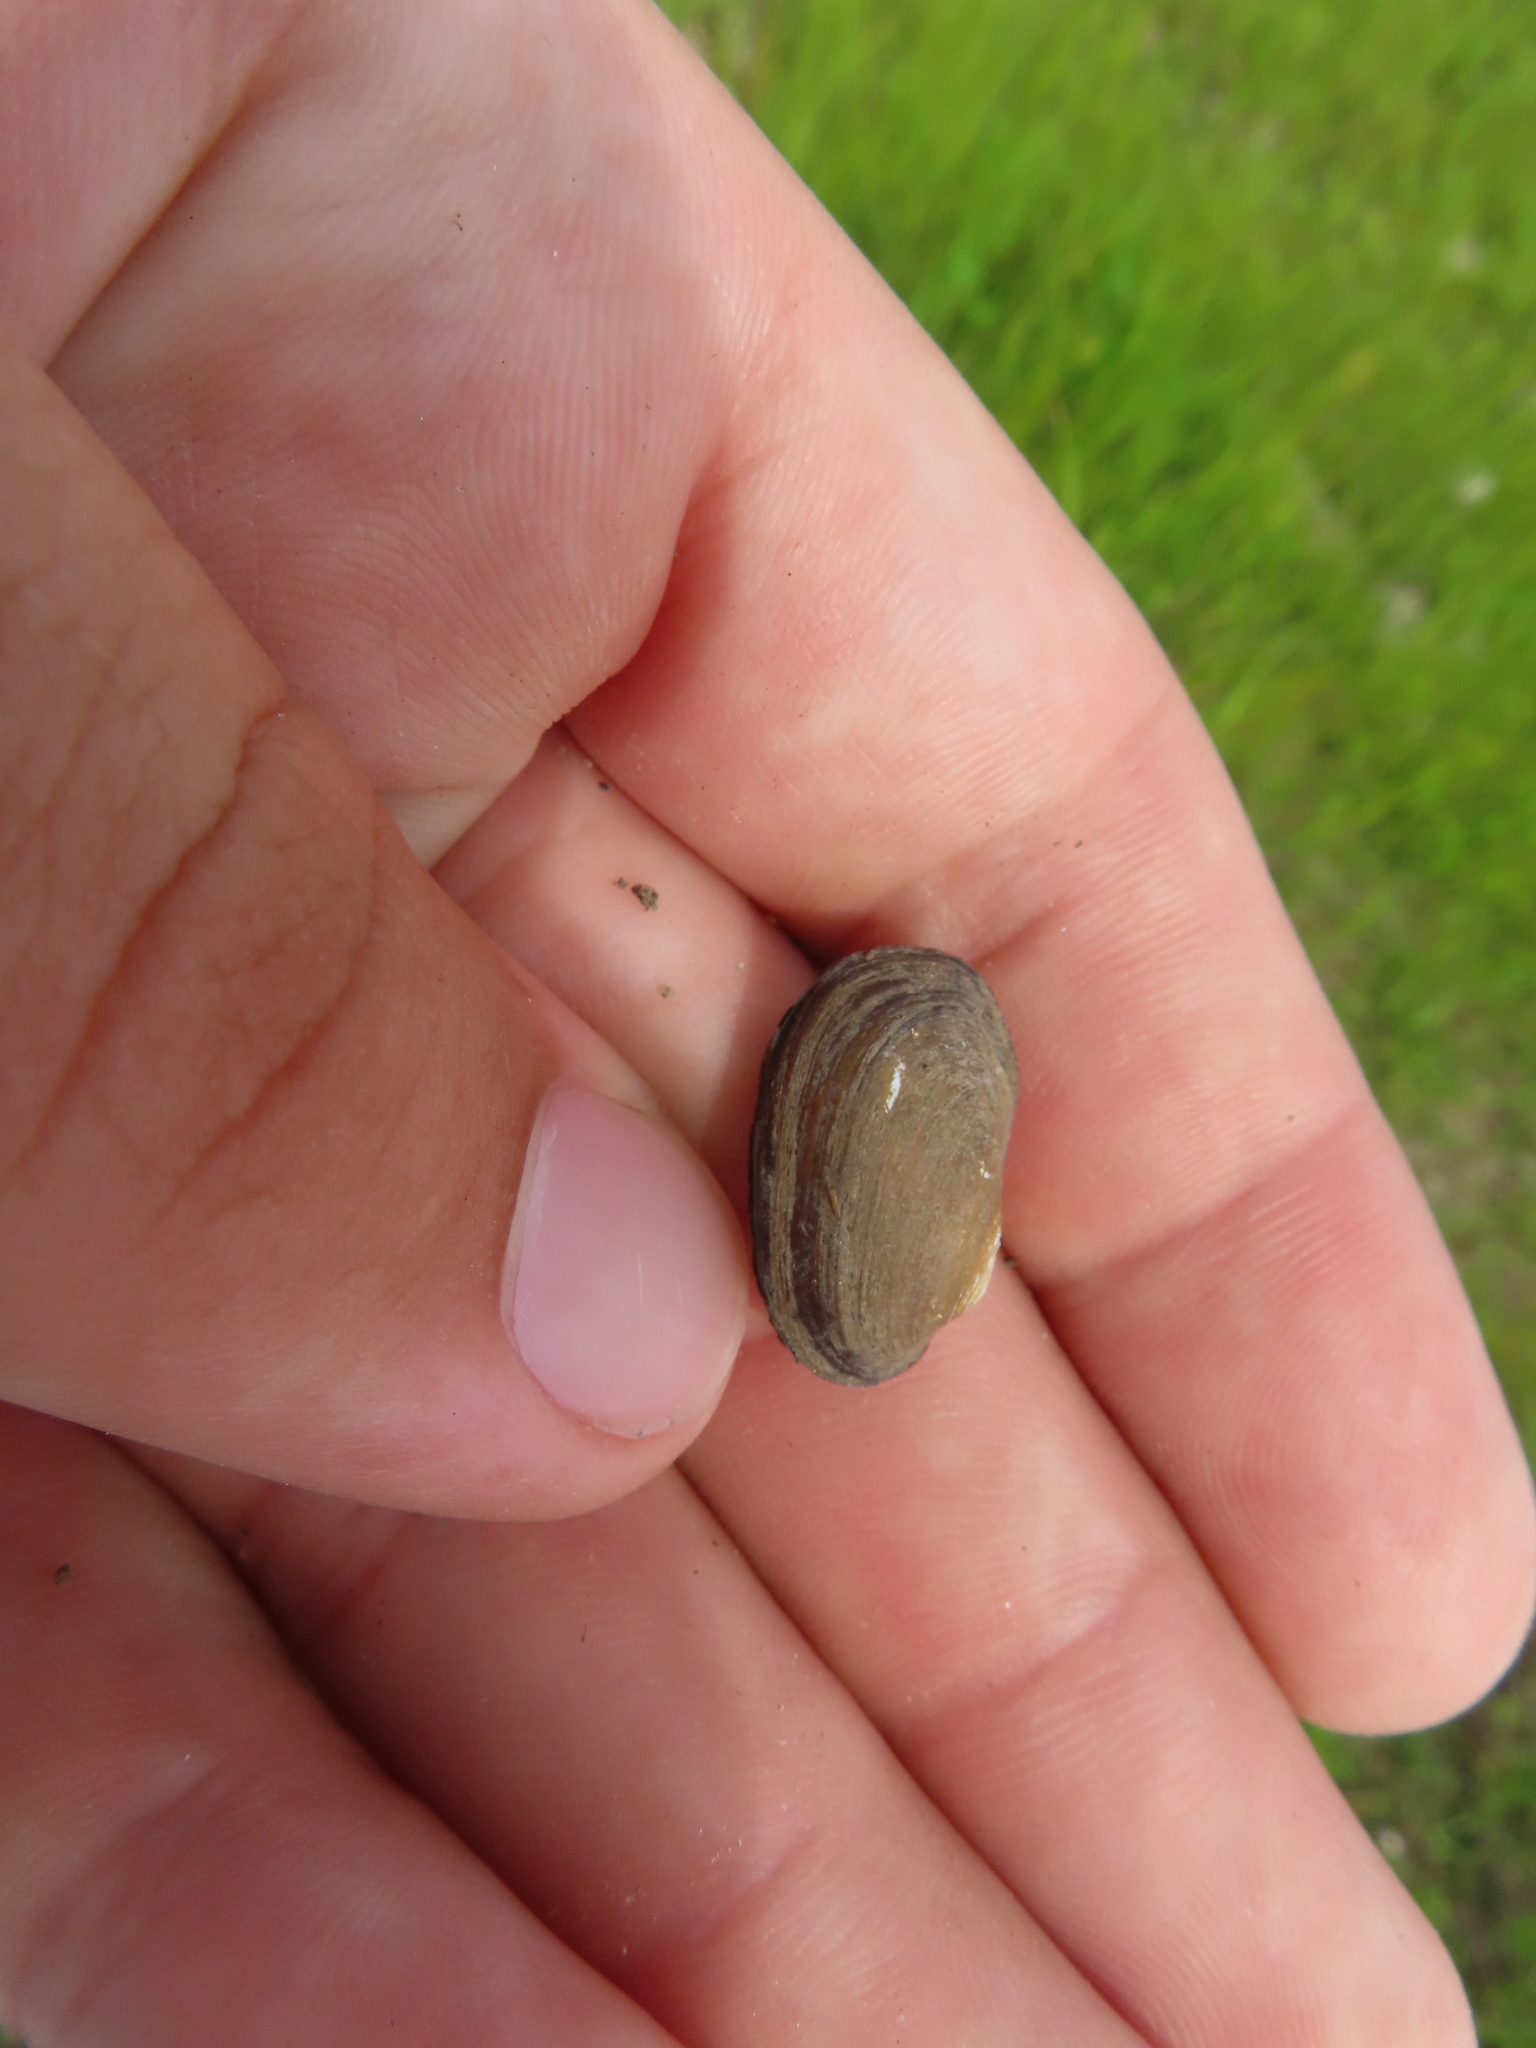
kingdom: Animalia
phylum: Mollusca
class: Bivalvia
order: Unionida
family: Unionidae
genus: Toxolasma
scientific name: Toxolasma parvum
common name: Lilliput
